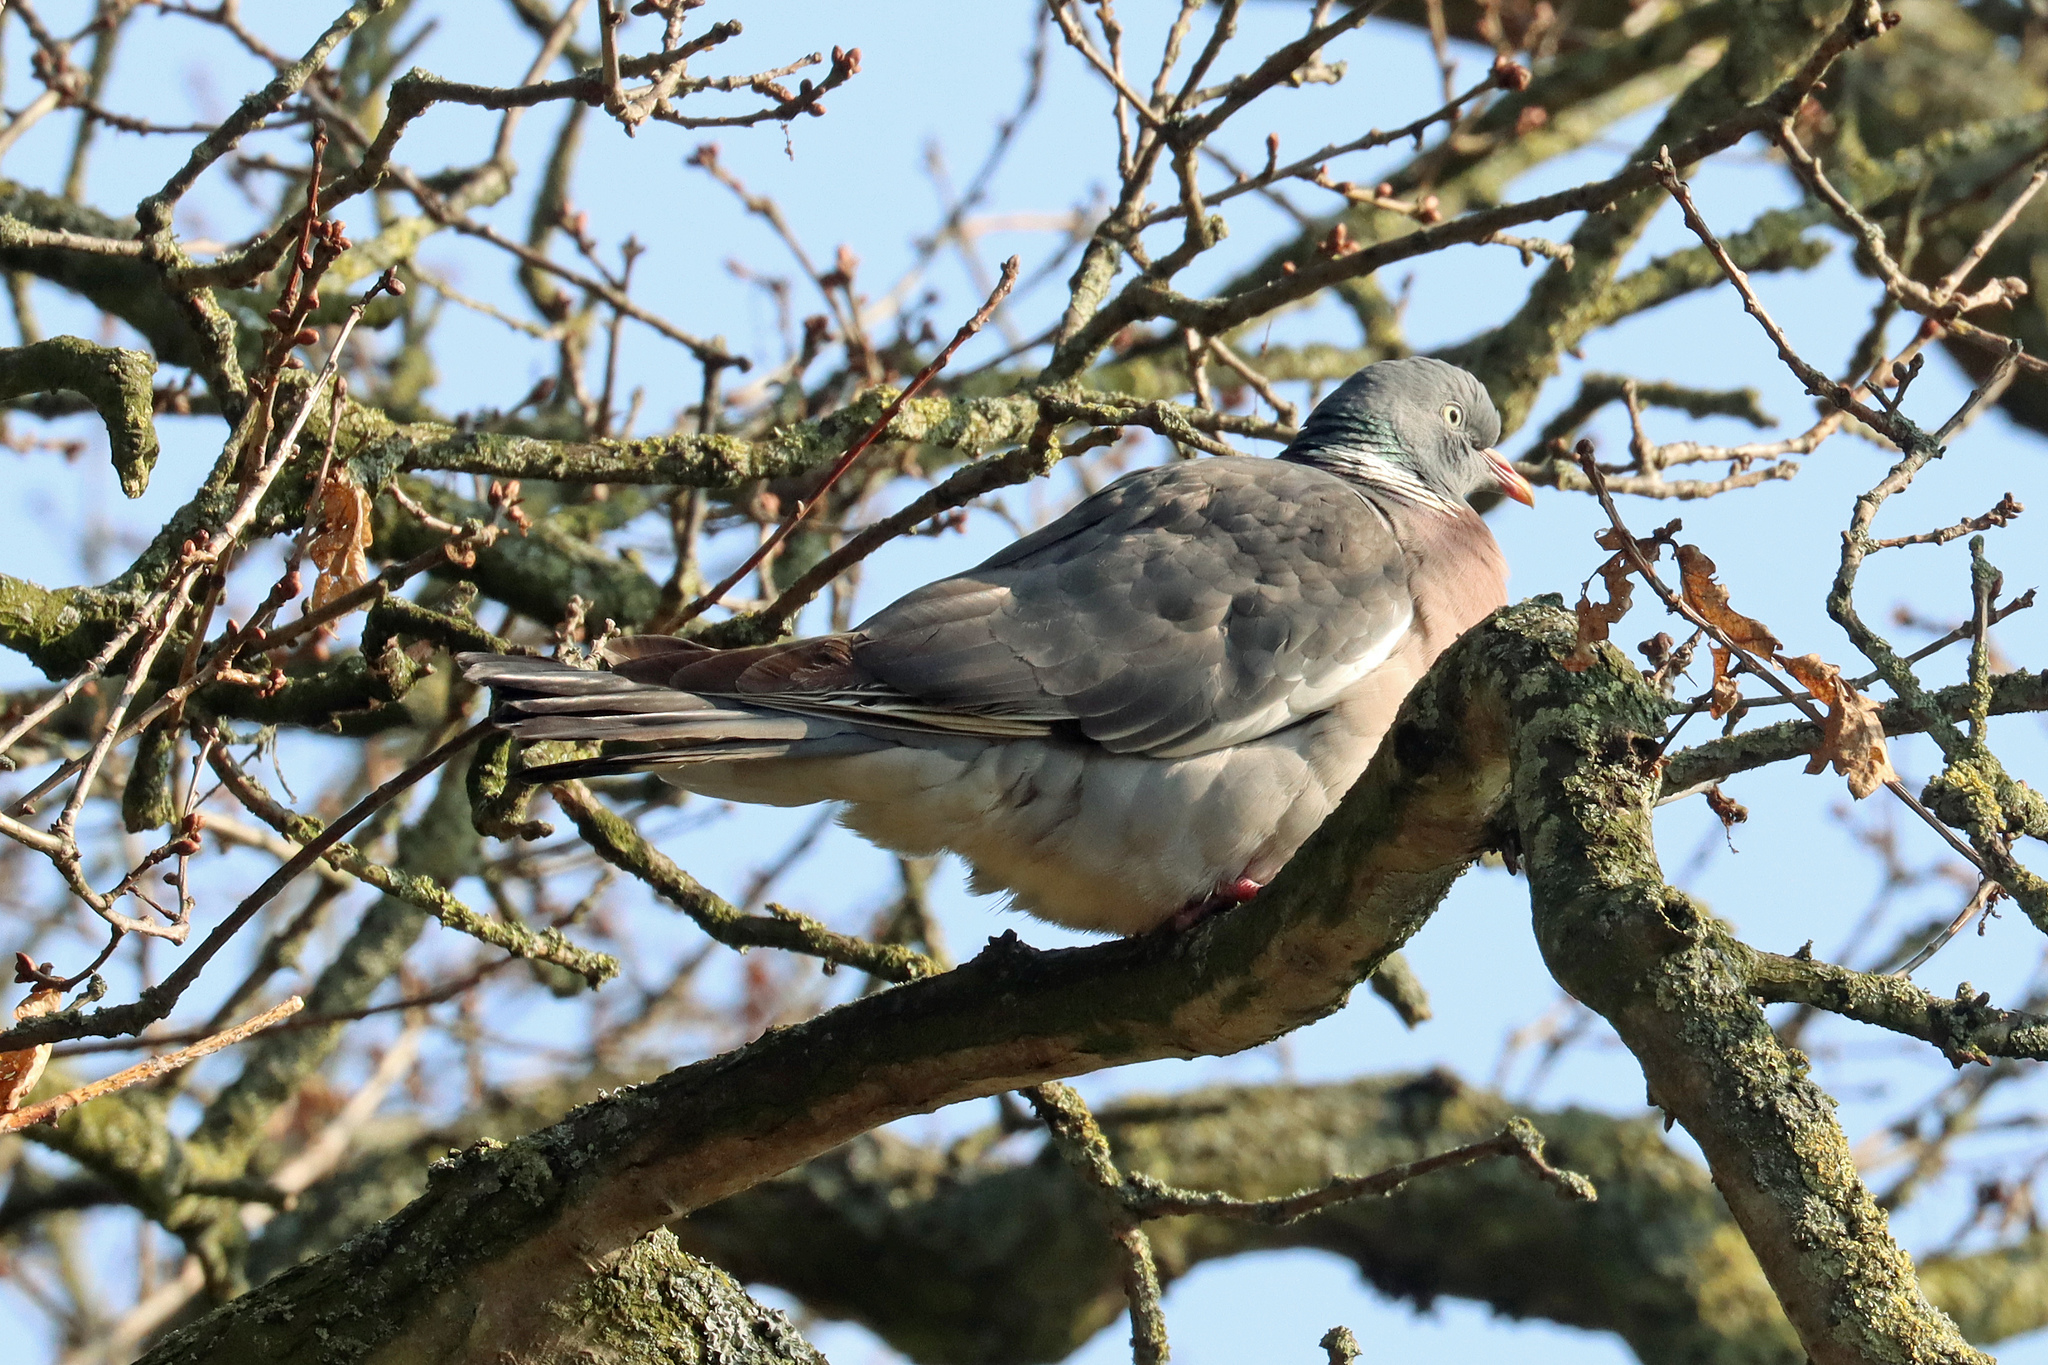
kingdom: Animalia
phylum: Chordata
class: Aves
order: Columbiformes
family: Columbidae
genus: Columba
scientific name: Columba palumbus
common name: Common wood pigeon
